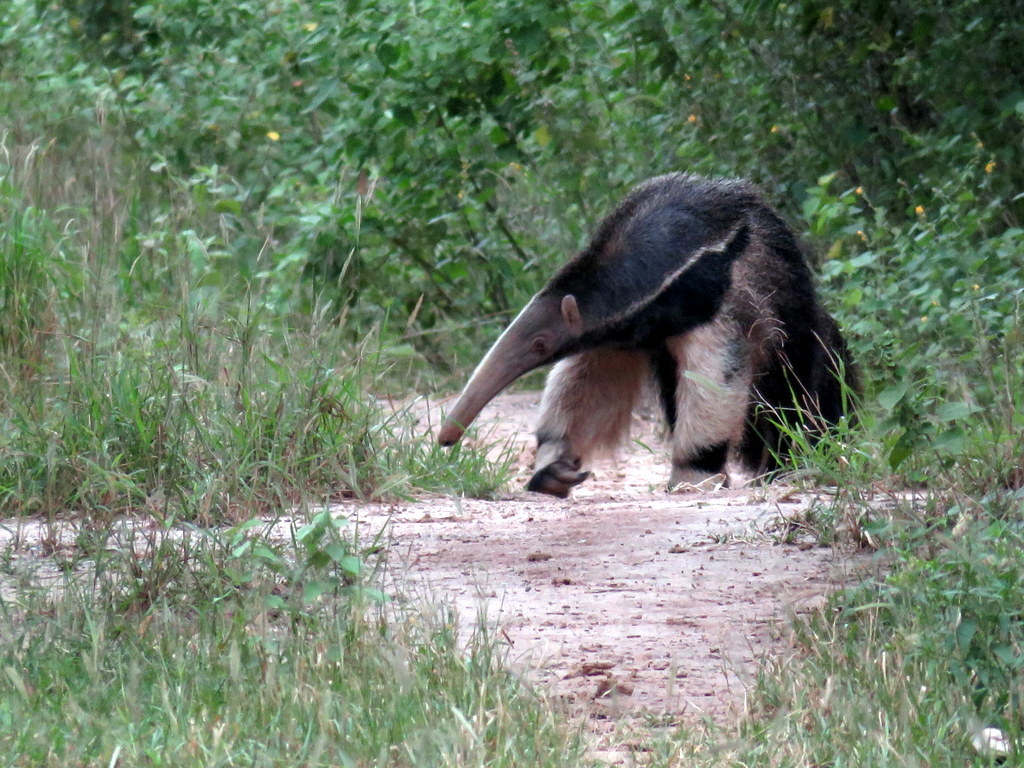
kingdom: Animalia
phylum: Chordata
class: Mammalia
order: Pilosa
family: Myrmecophagidae
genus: Myrmecophaga
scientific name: Myrmecophaga tridactyla
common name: Giant anteater
